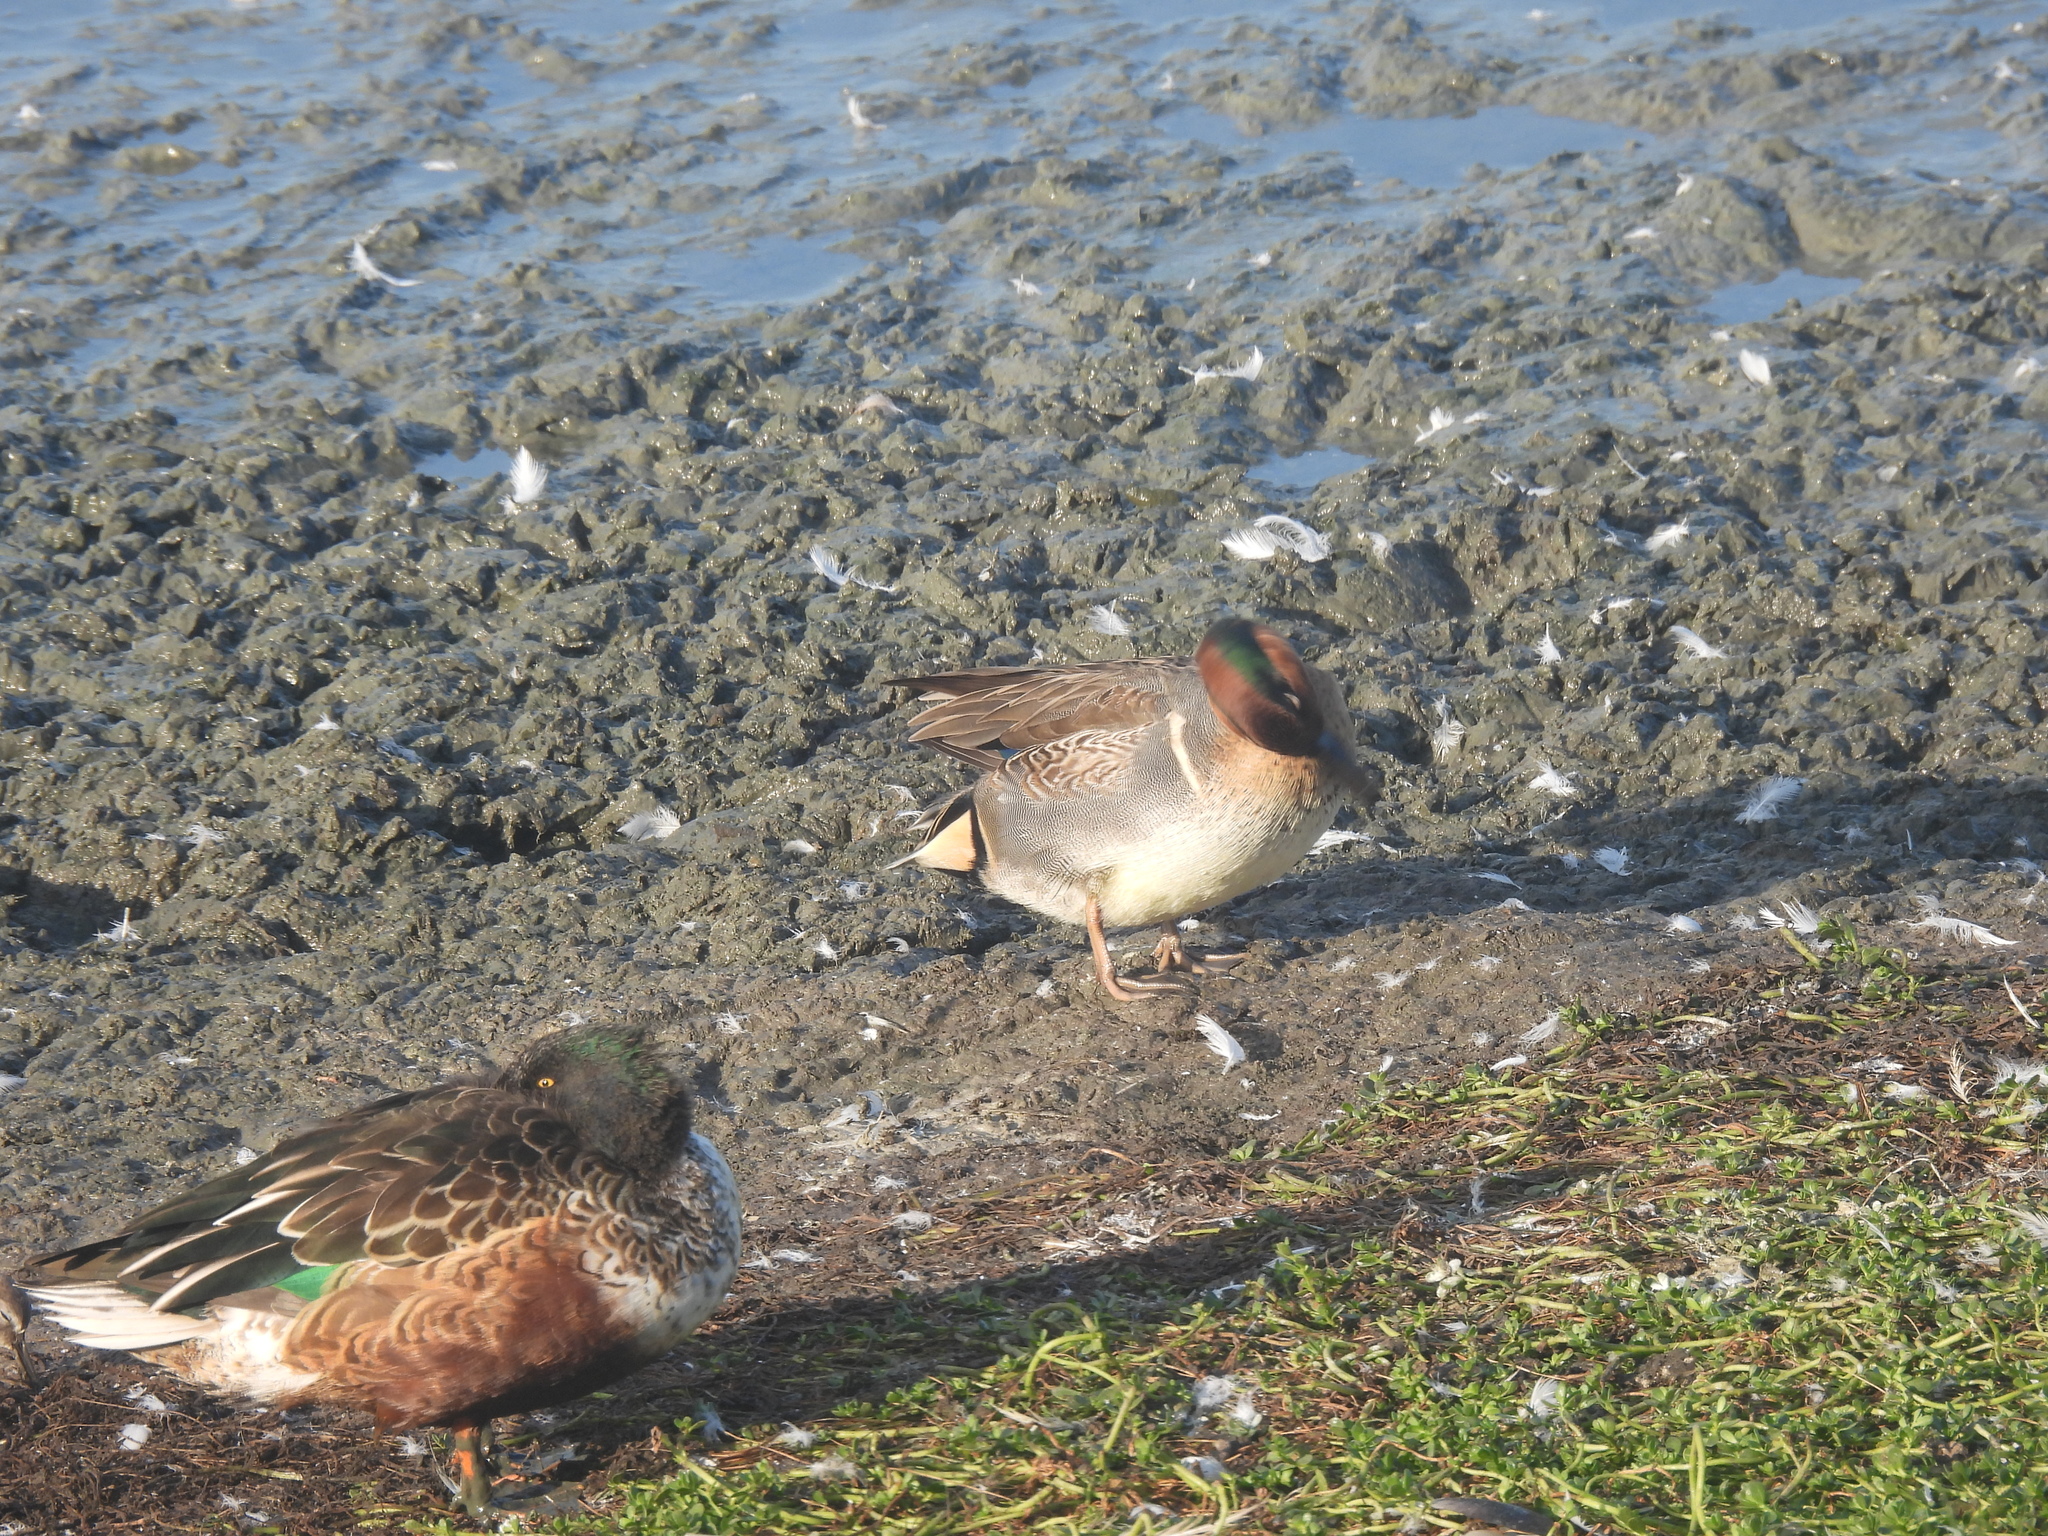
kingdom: Animalia
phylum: Chordata
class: Aves
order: Anseriformes
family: Anatidae
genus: Anas
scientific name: Anas crecca
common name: Eurasian teal
